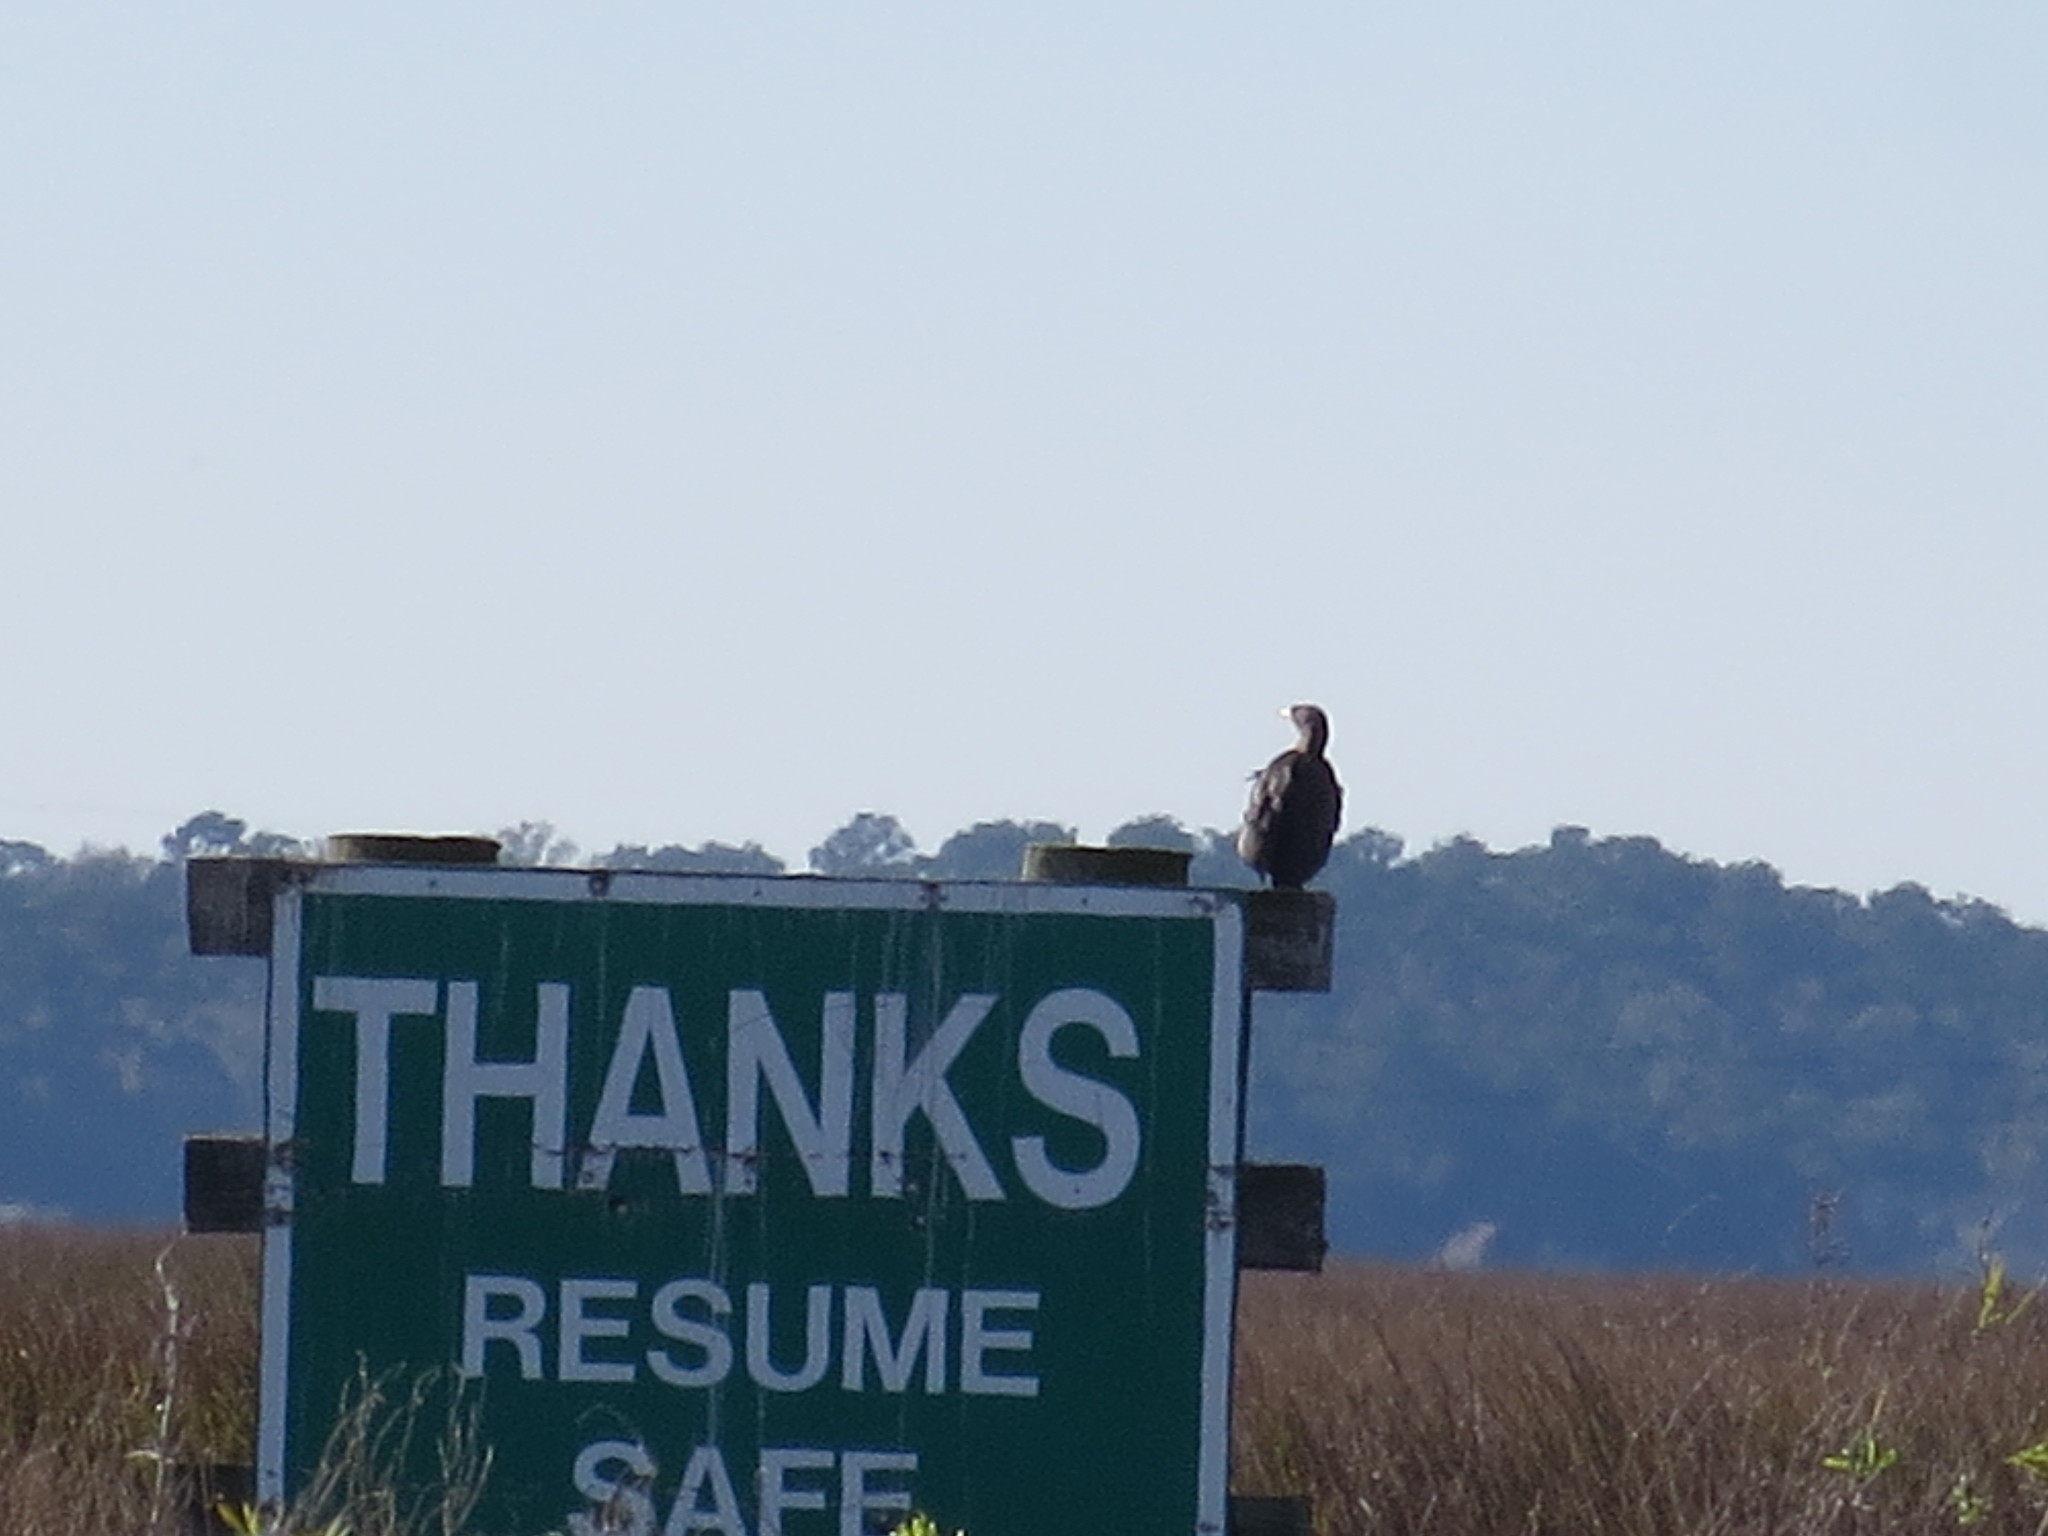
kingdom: Animalia
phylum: Chordata
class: Aves
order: Suliformes
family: Phalacrocoracidae
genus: Phalacrocorax
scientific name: Phalacrocorax auritus
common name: Double-crested cormorant
